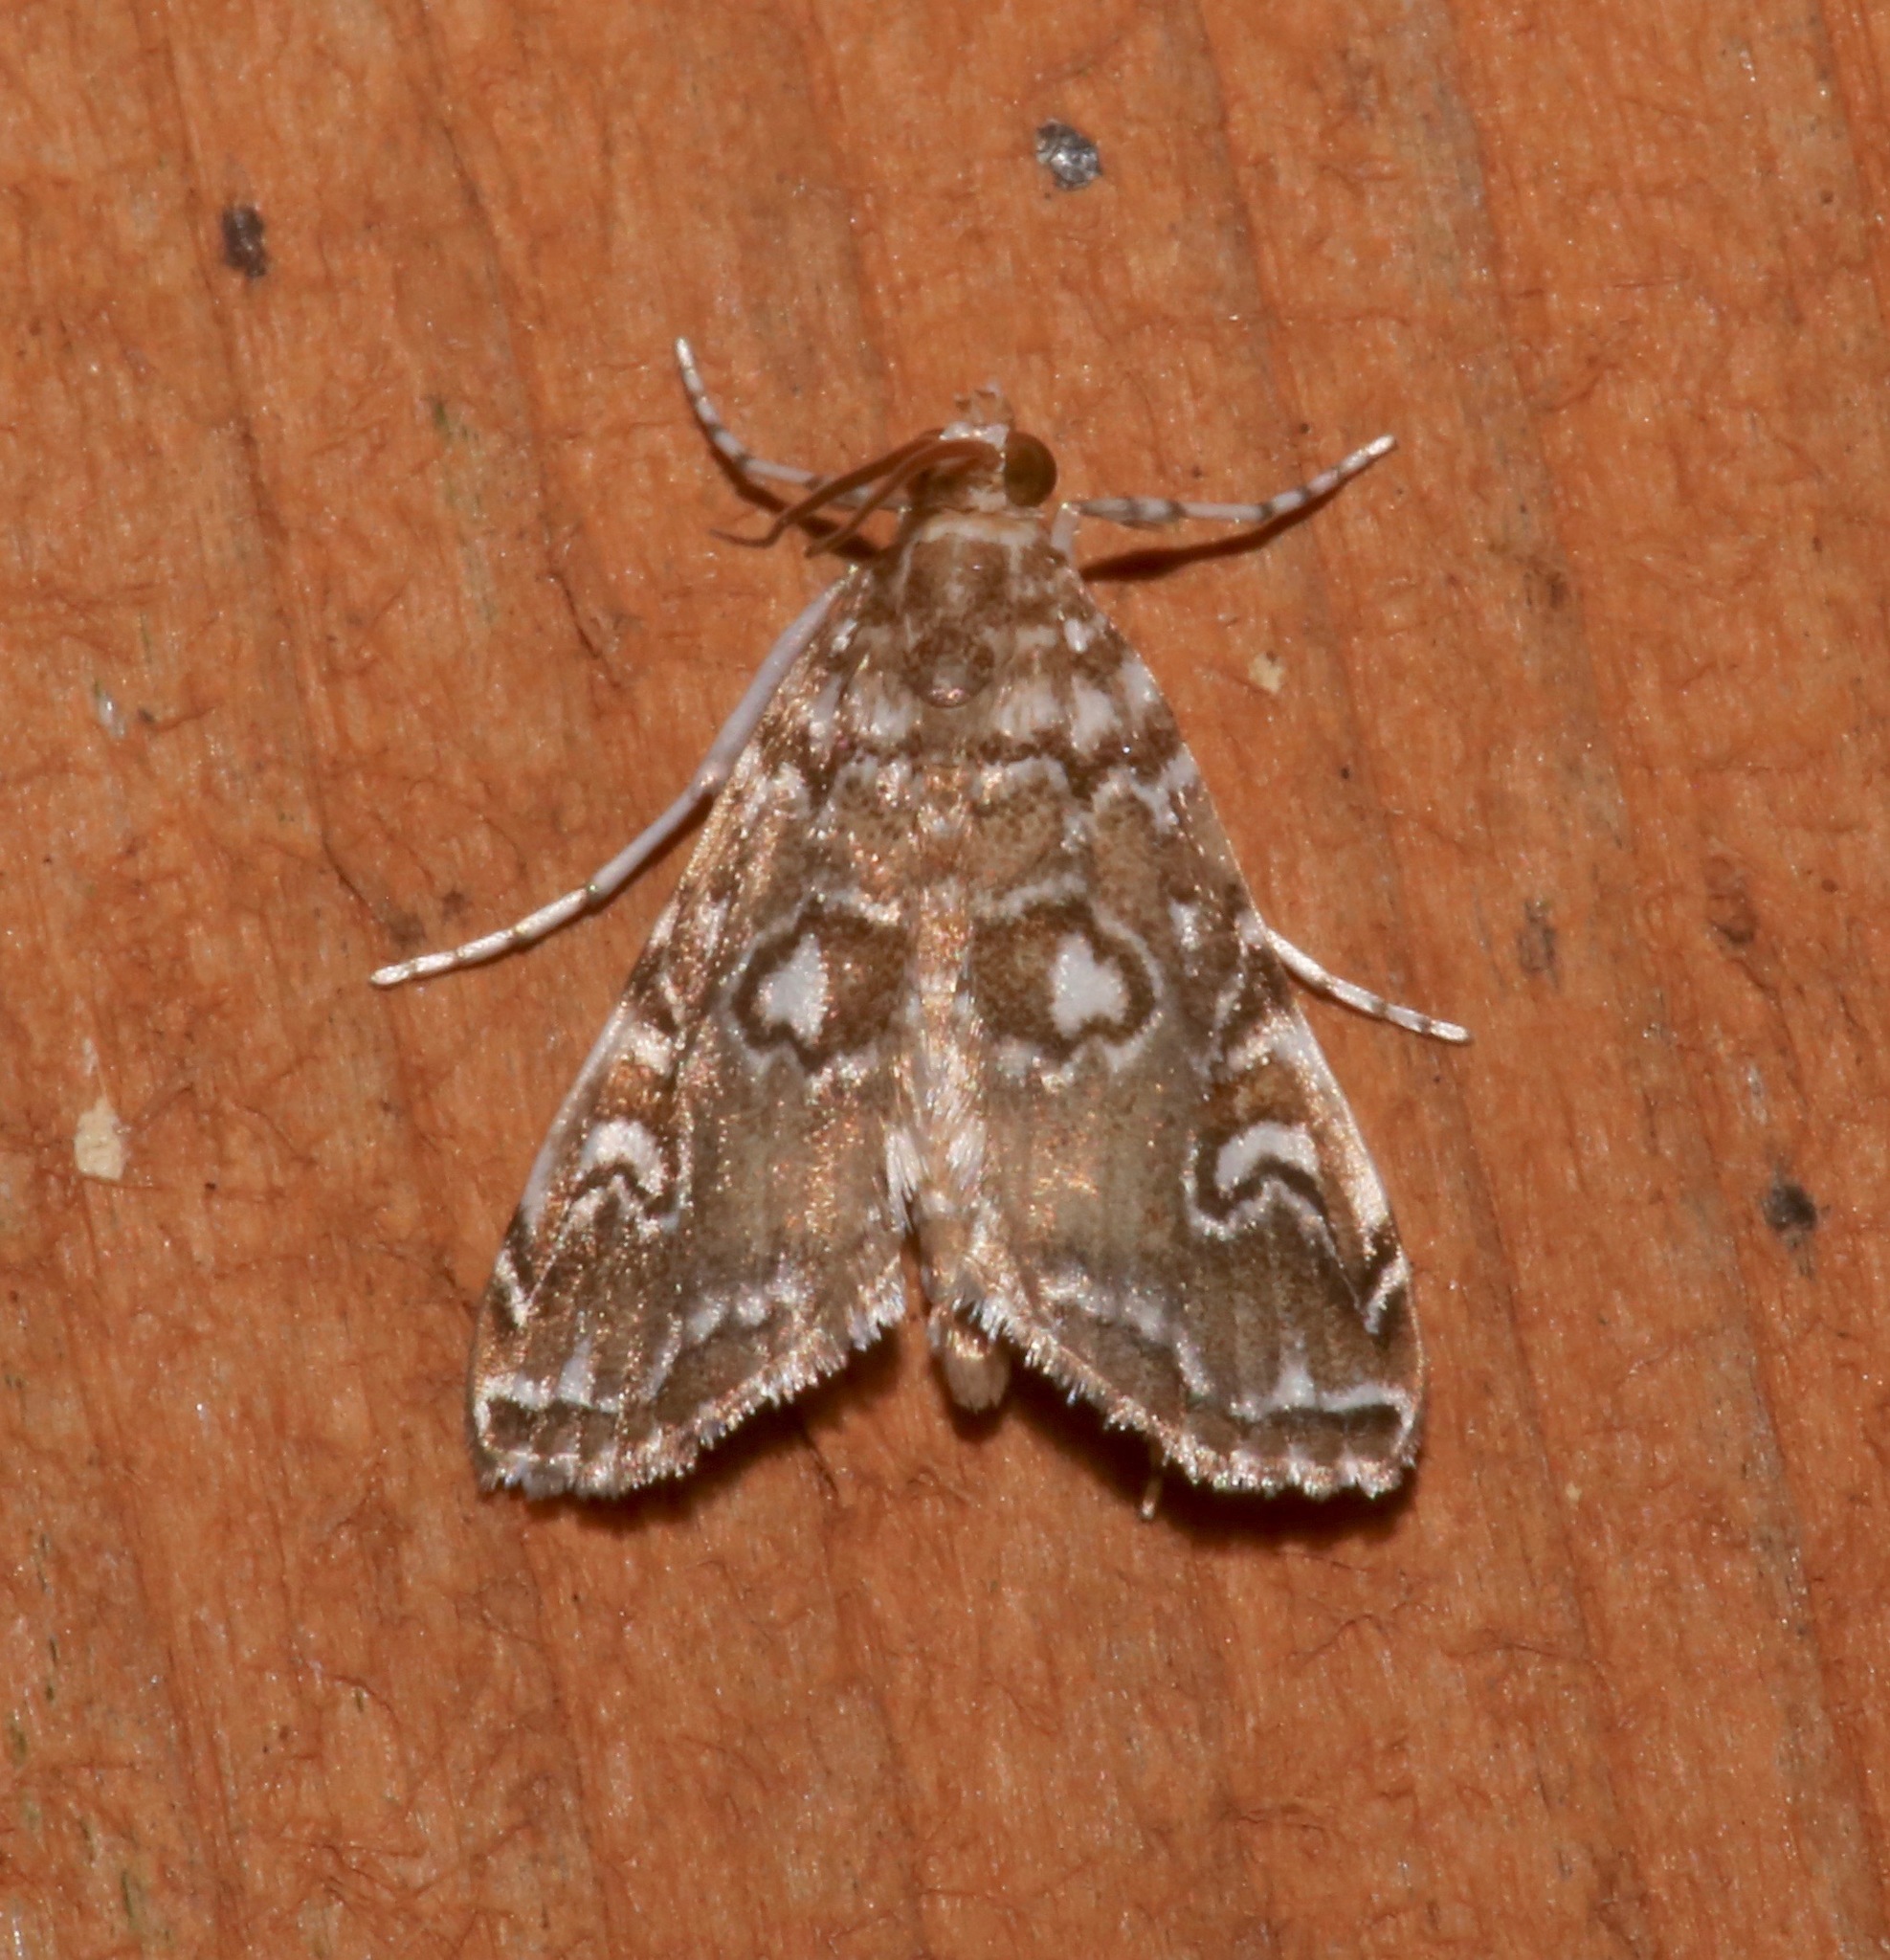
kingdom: Animalia
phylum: Arthropoda
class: Insecta
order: Lepidoptera
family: Crambidae
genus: Elophila
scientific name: Elophila gyralis
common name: Waterlily borer moth
